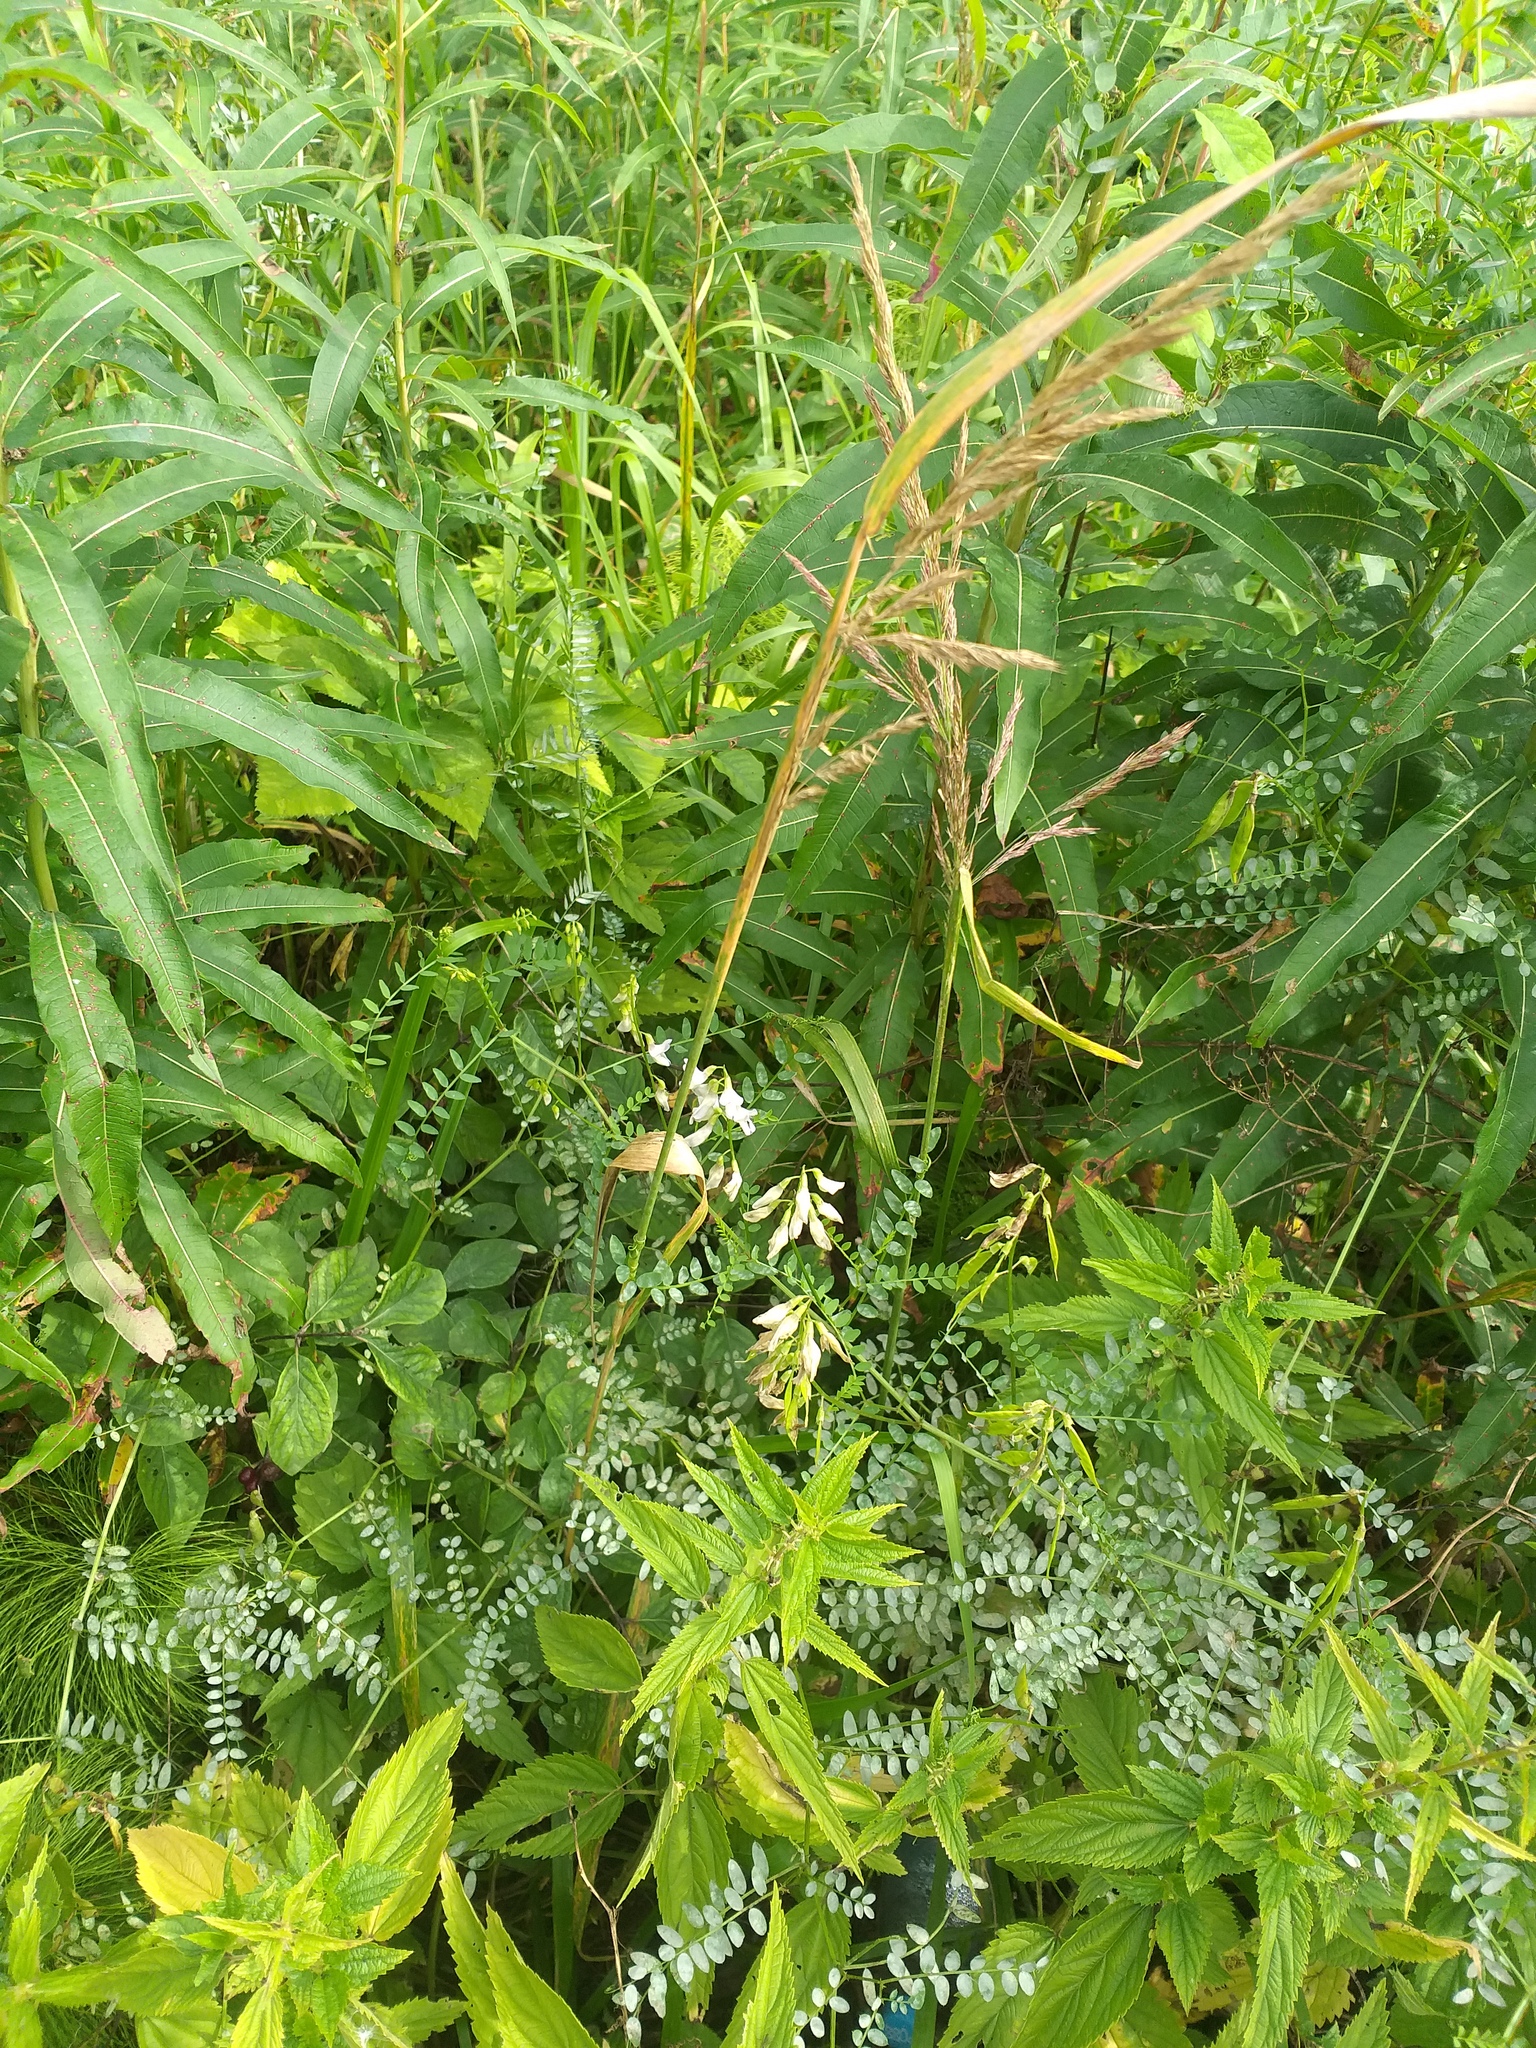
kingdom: Plantae
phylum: Tracheophyta
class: Magnoliopsida
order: Fabales
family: Fabaceae
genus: Vicia
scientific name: Vicia sylvatica
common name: Wood vetch
